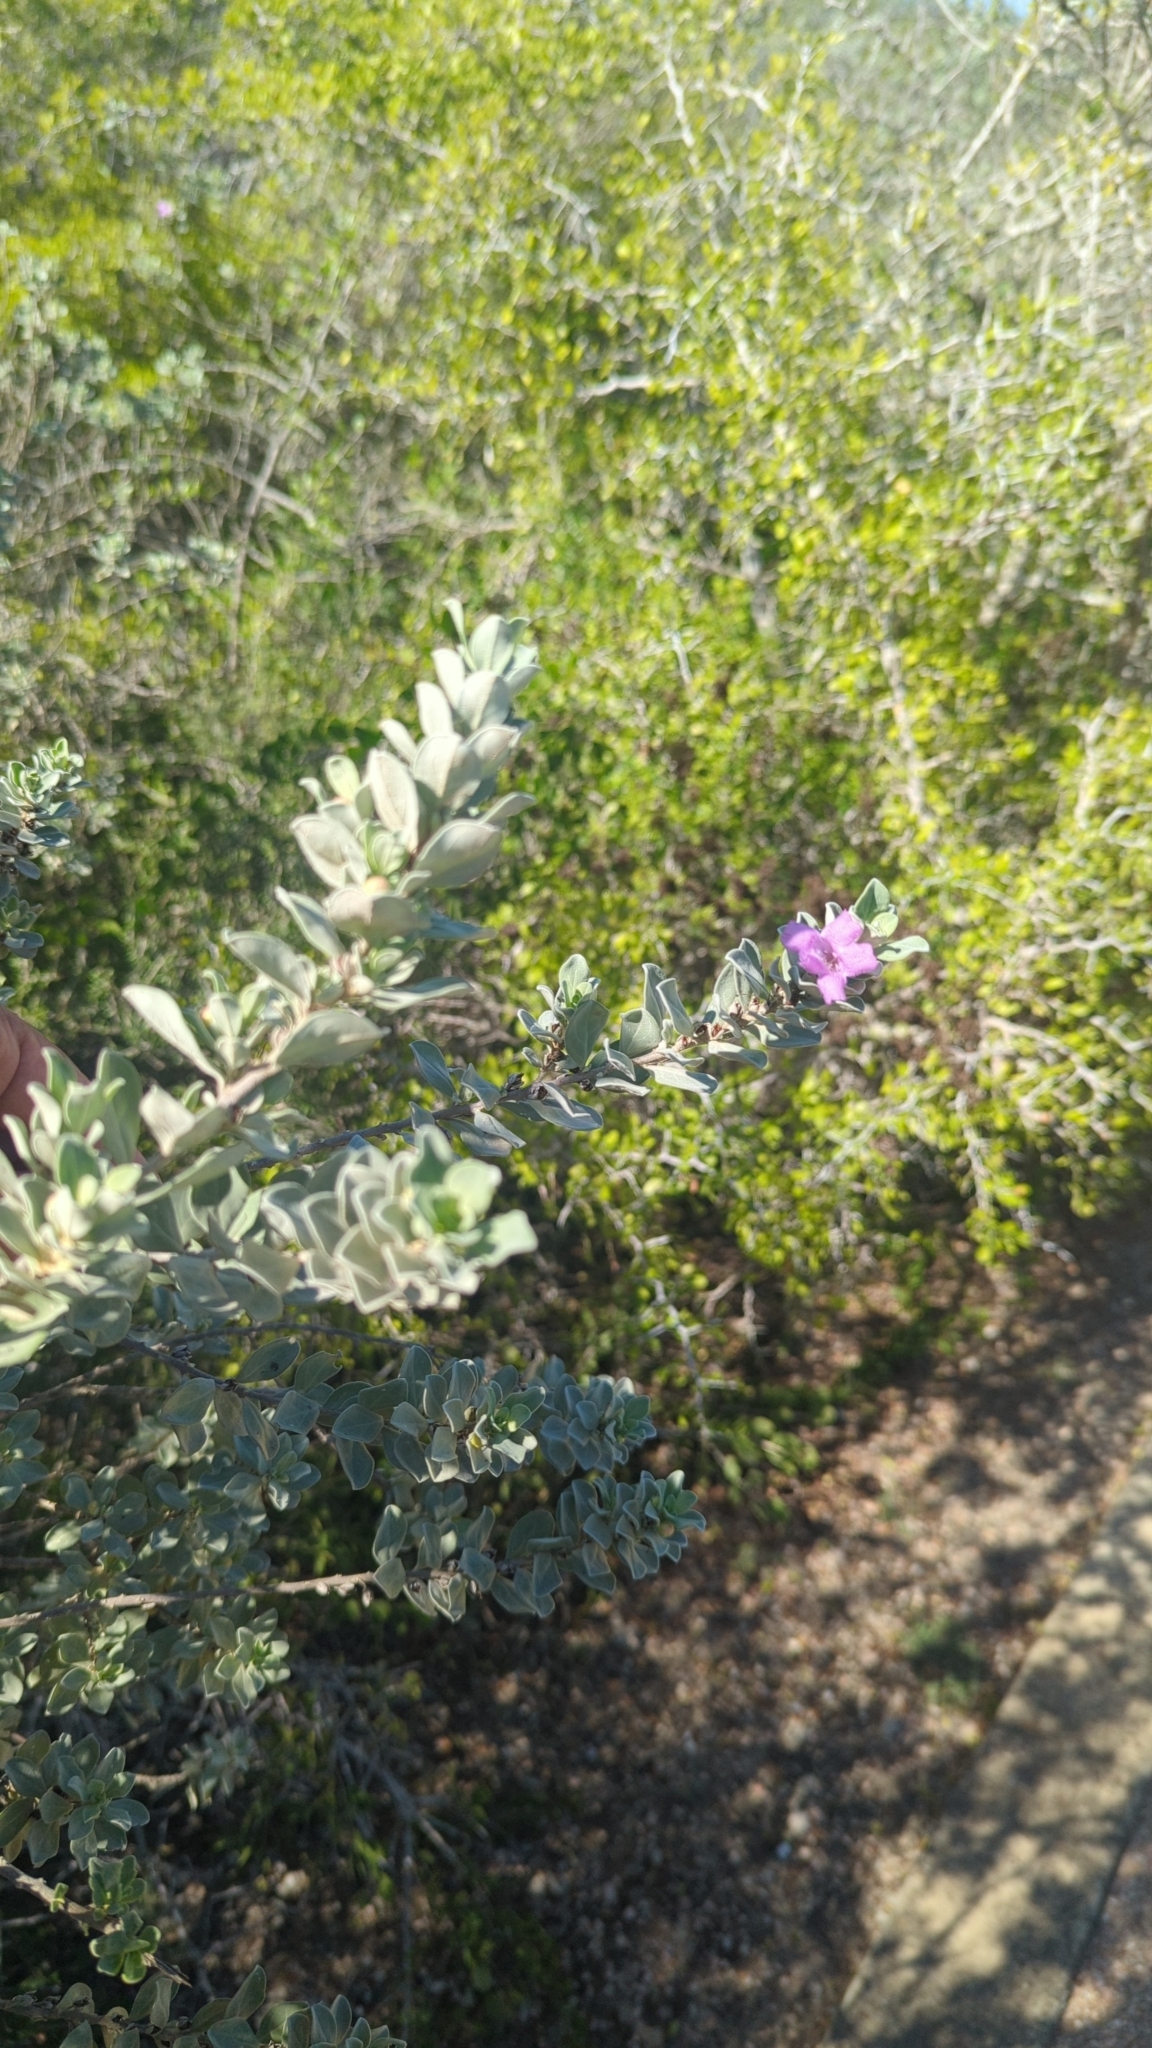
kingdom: Plantae
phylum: Tracheophyta
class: Magnoliopsida
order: Lamiales
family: Scrophulariaceae
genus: Leucophyllum
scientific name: Leucophyllum frutescens
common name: Texas silverleaf
